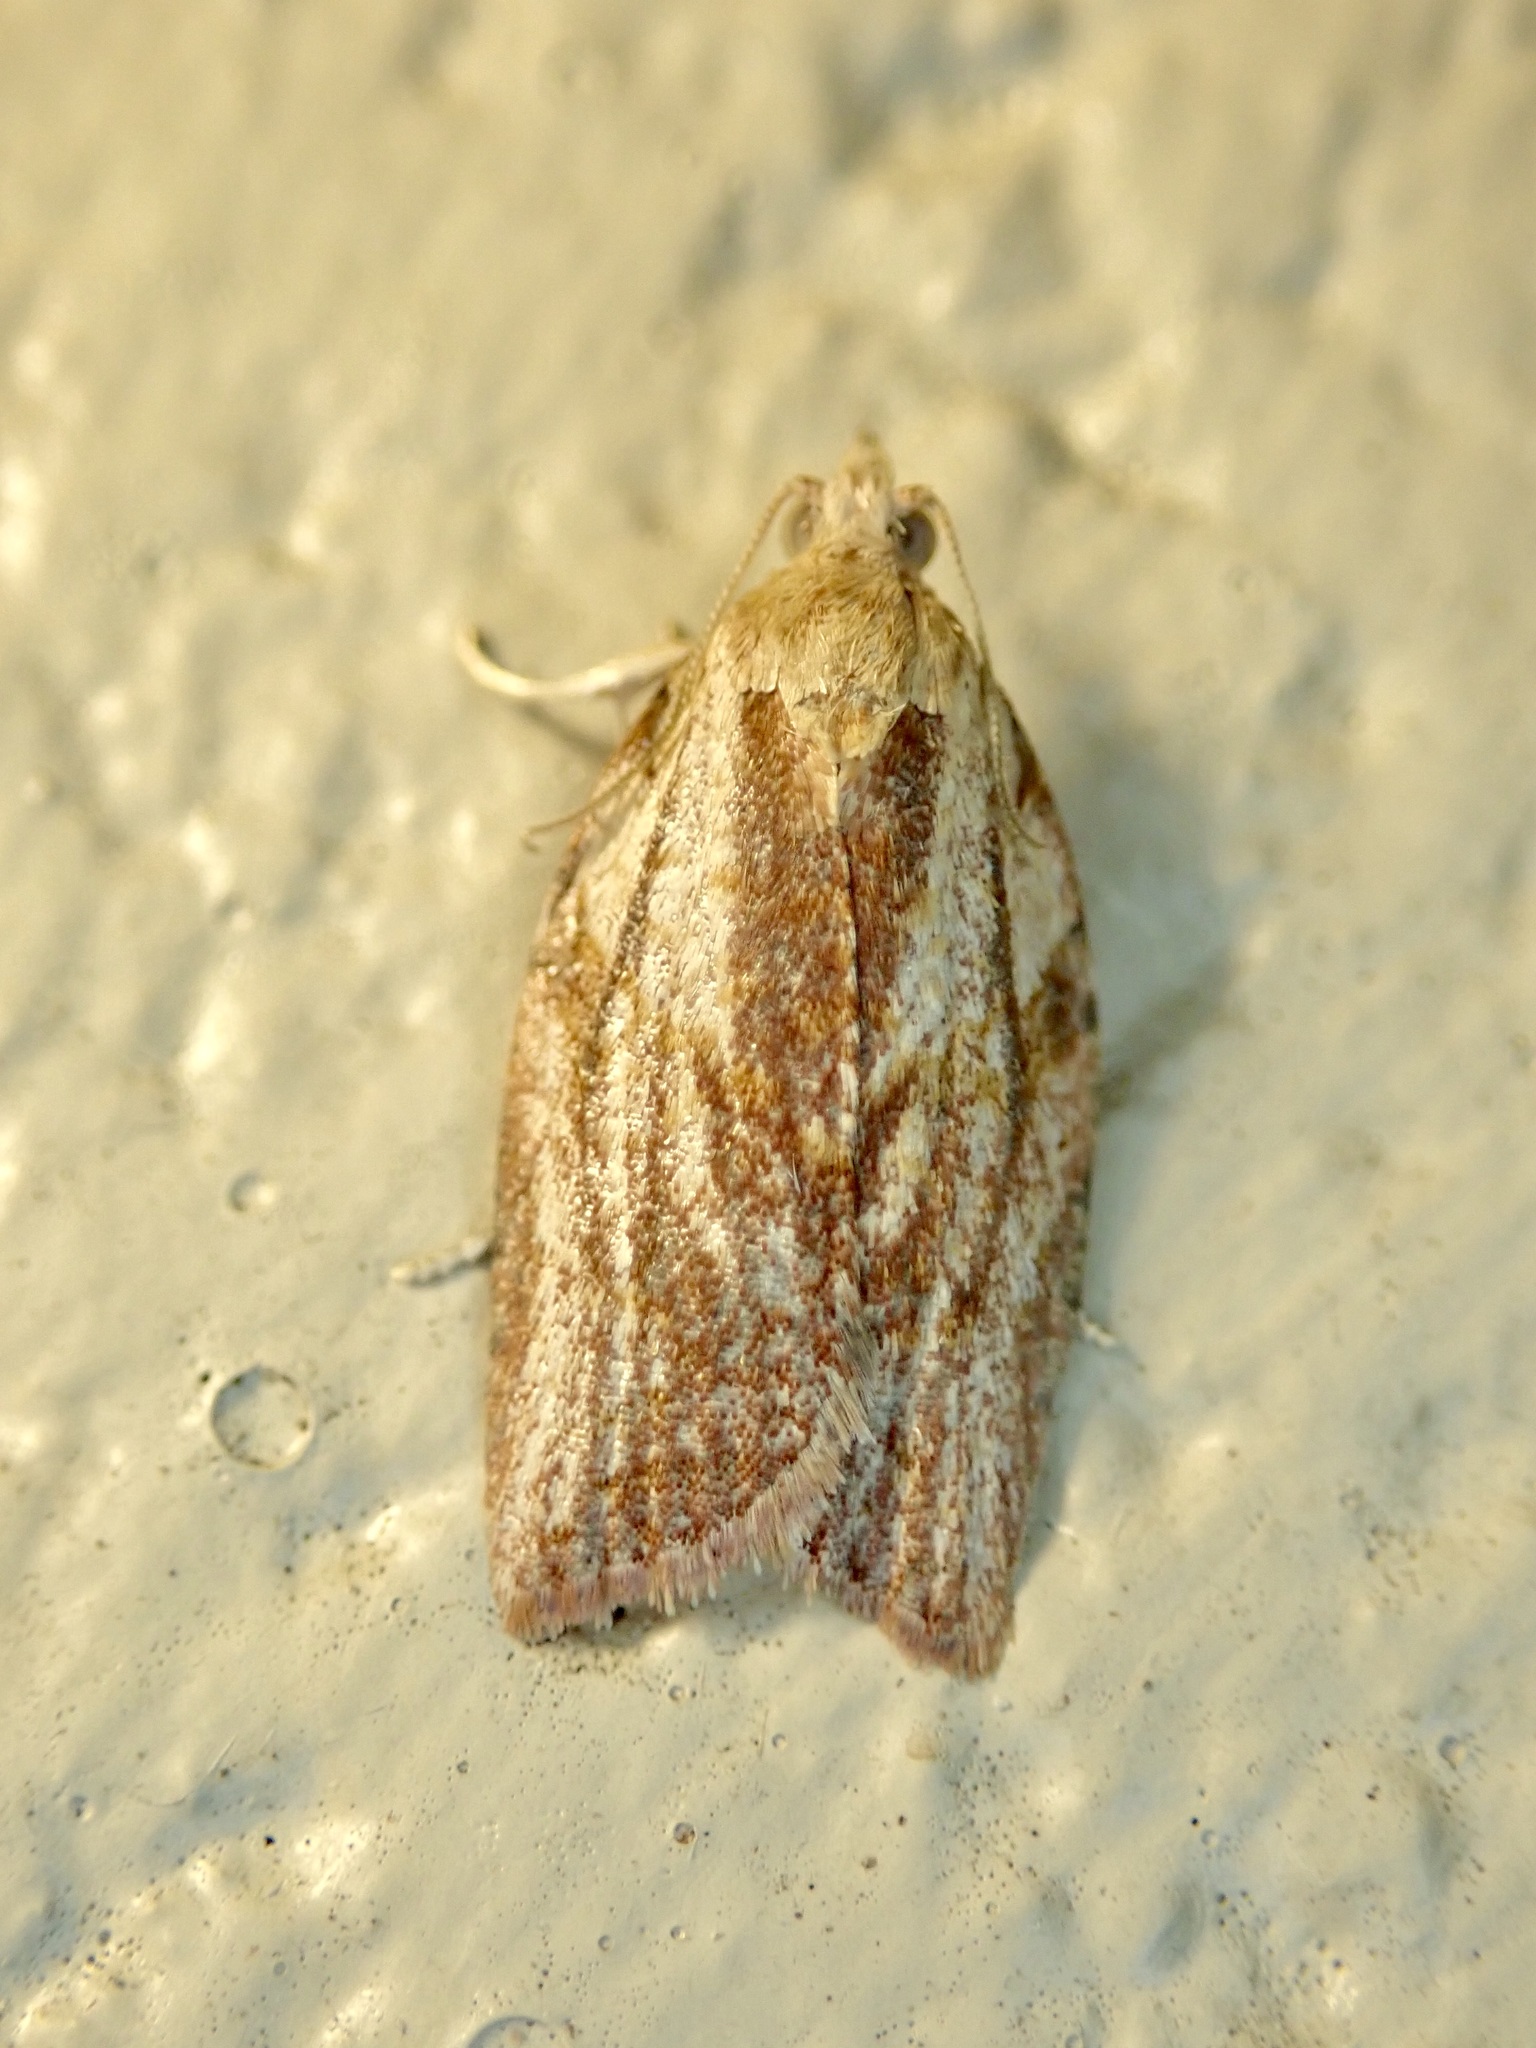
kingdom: Animalia
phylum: Arthropoda
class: Insecta
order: Lepidoptera
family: Tortricidae
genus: Epiphyas
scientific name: Epiphyas postvittana
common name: Light brown apple moth
